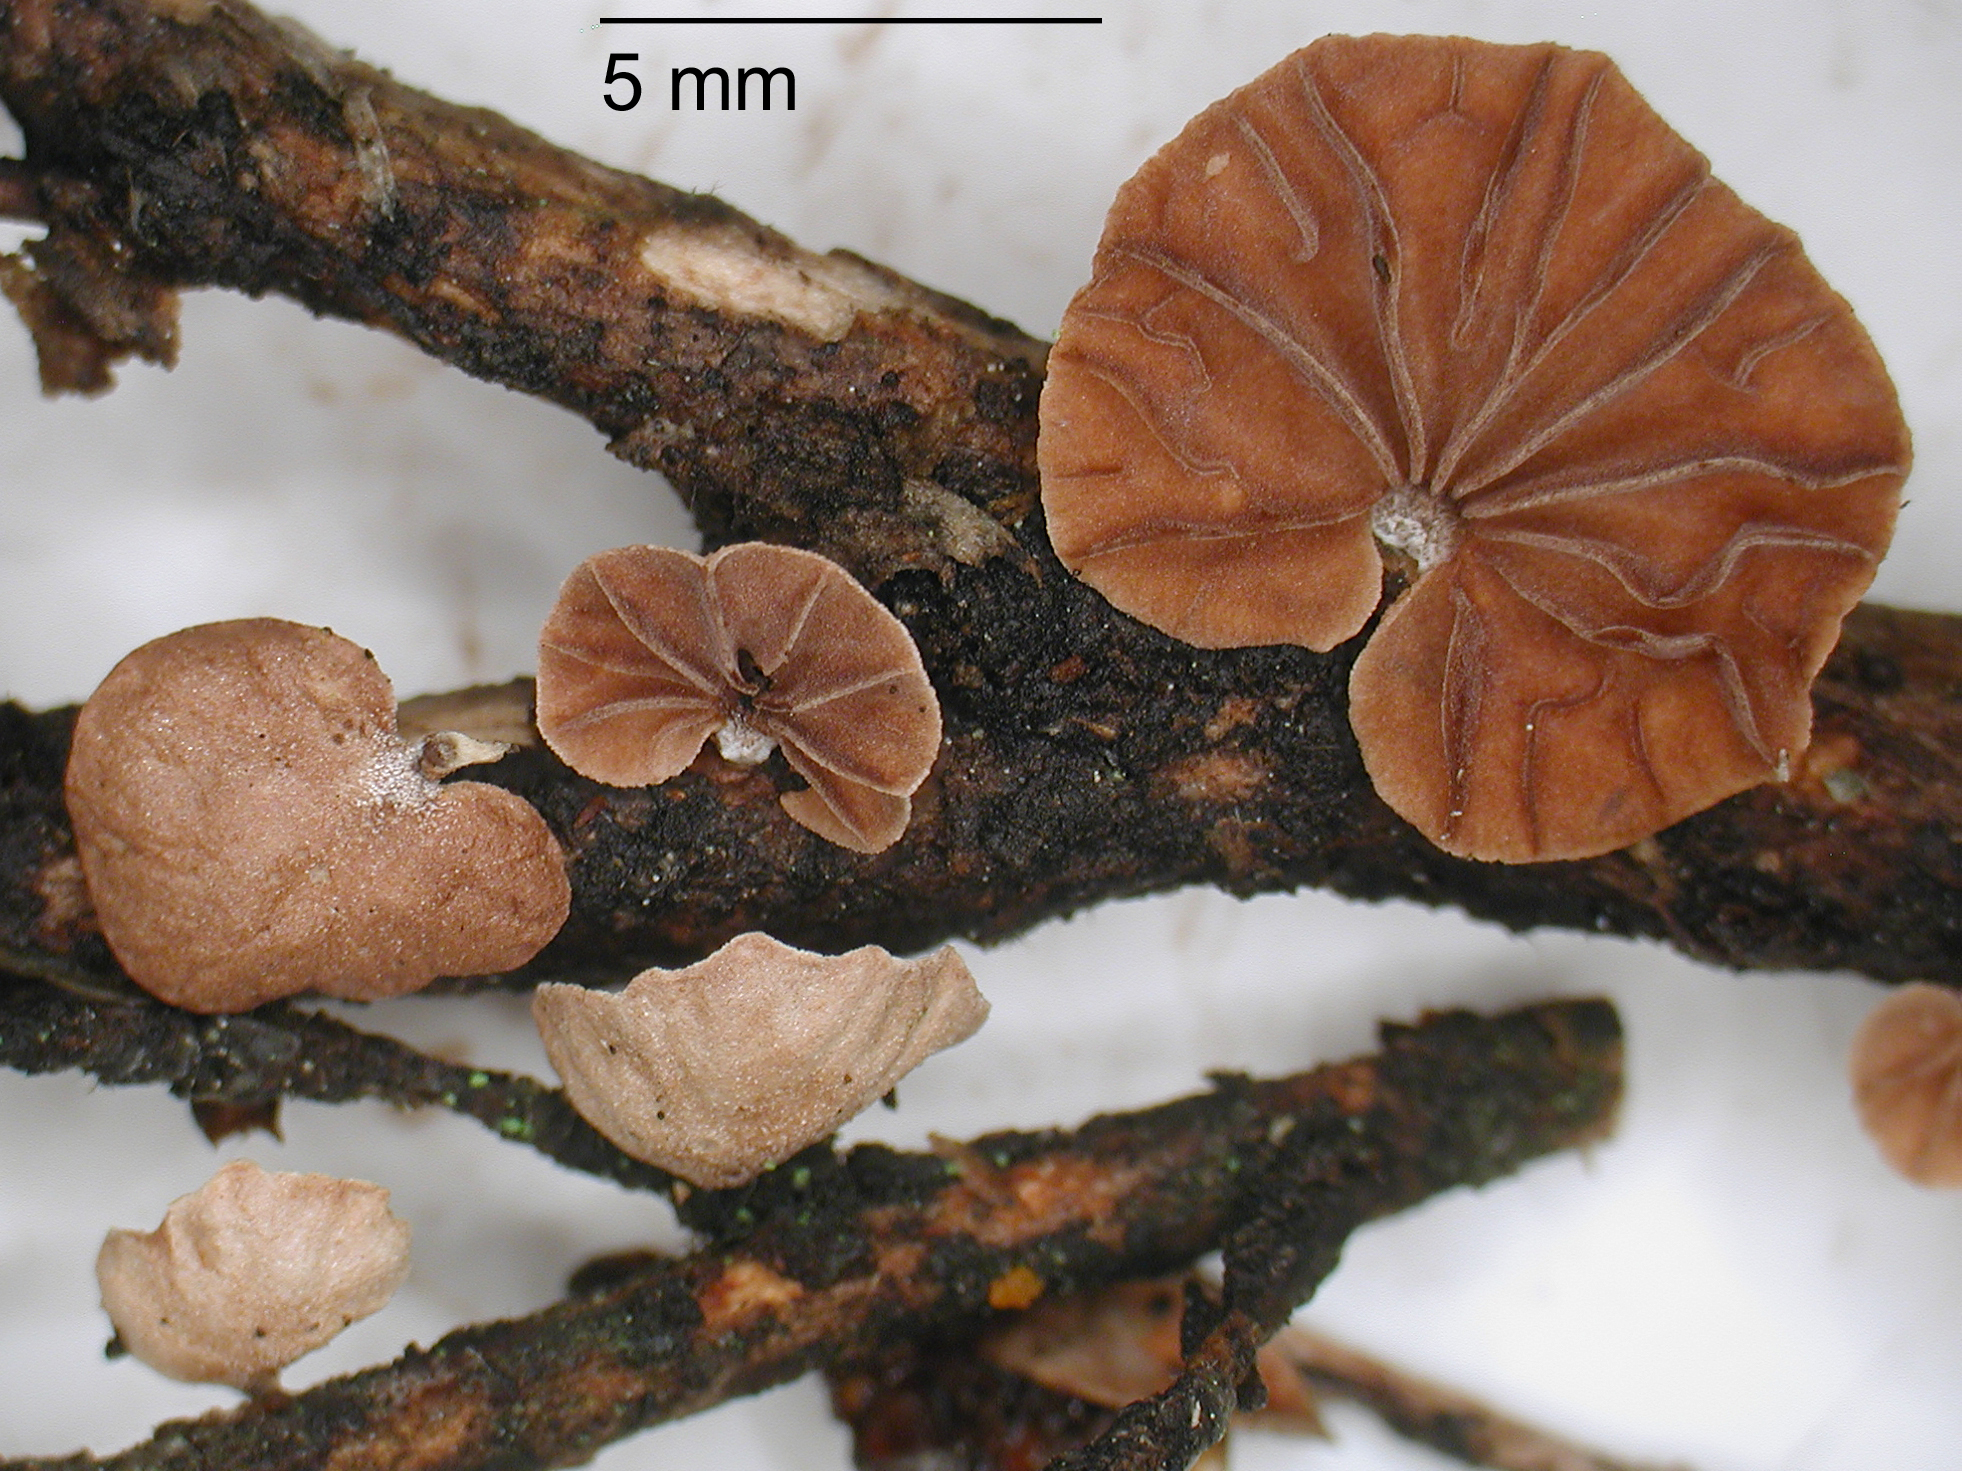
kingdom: Fungi
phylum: Basidiomycota
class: Agaricomycetes
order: Agaricales
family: Omphalotaceae
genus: Gymnopus
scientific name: Gymnopus subsupinus
